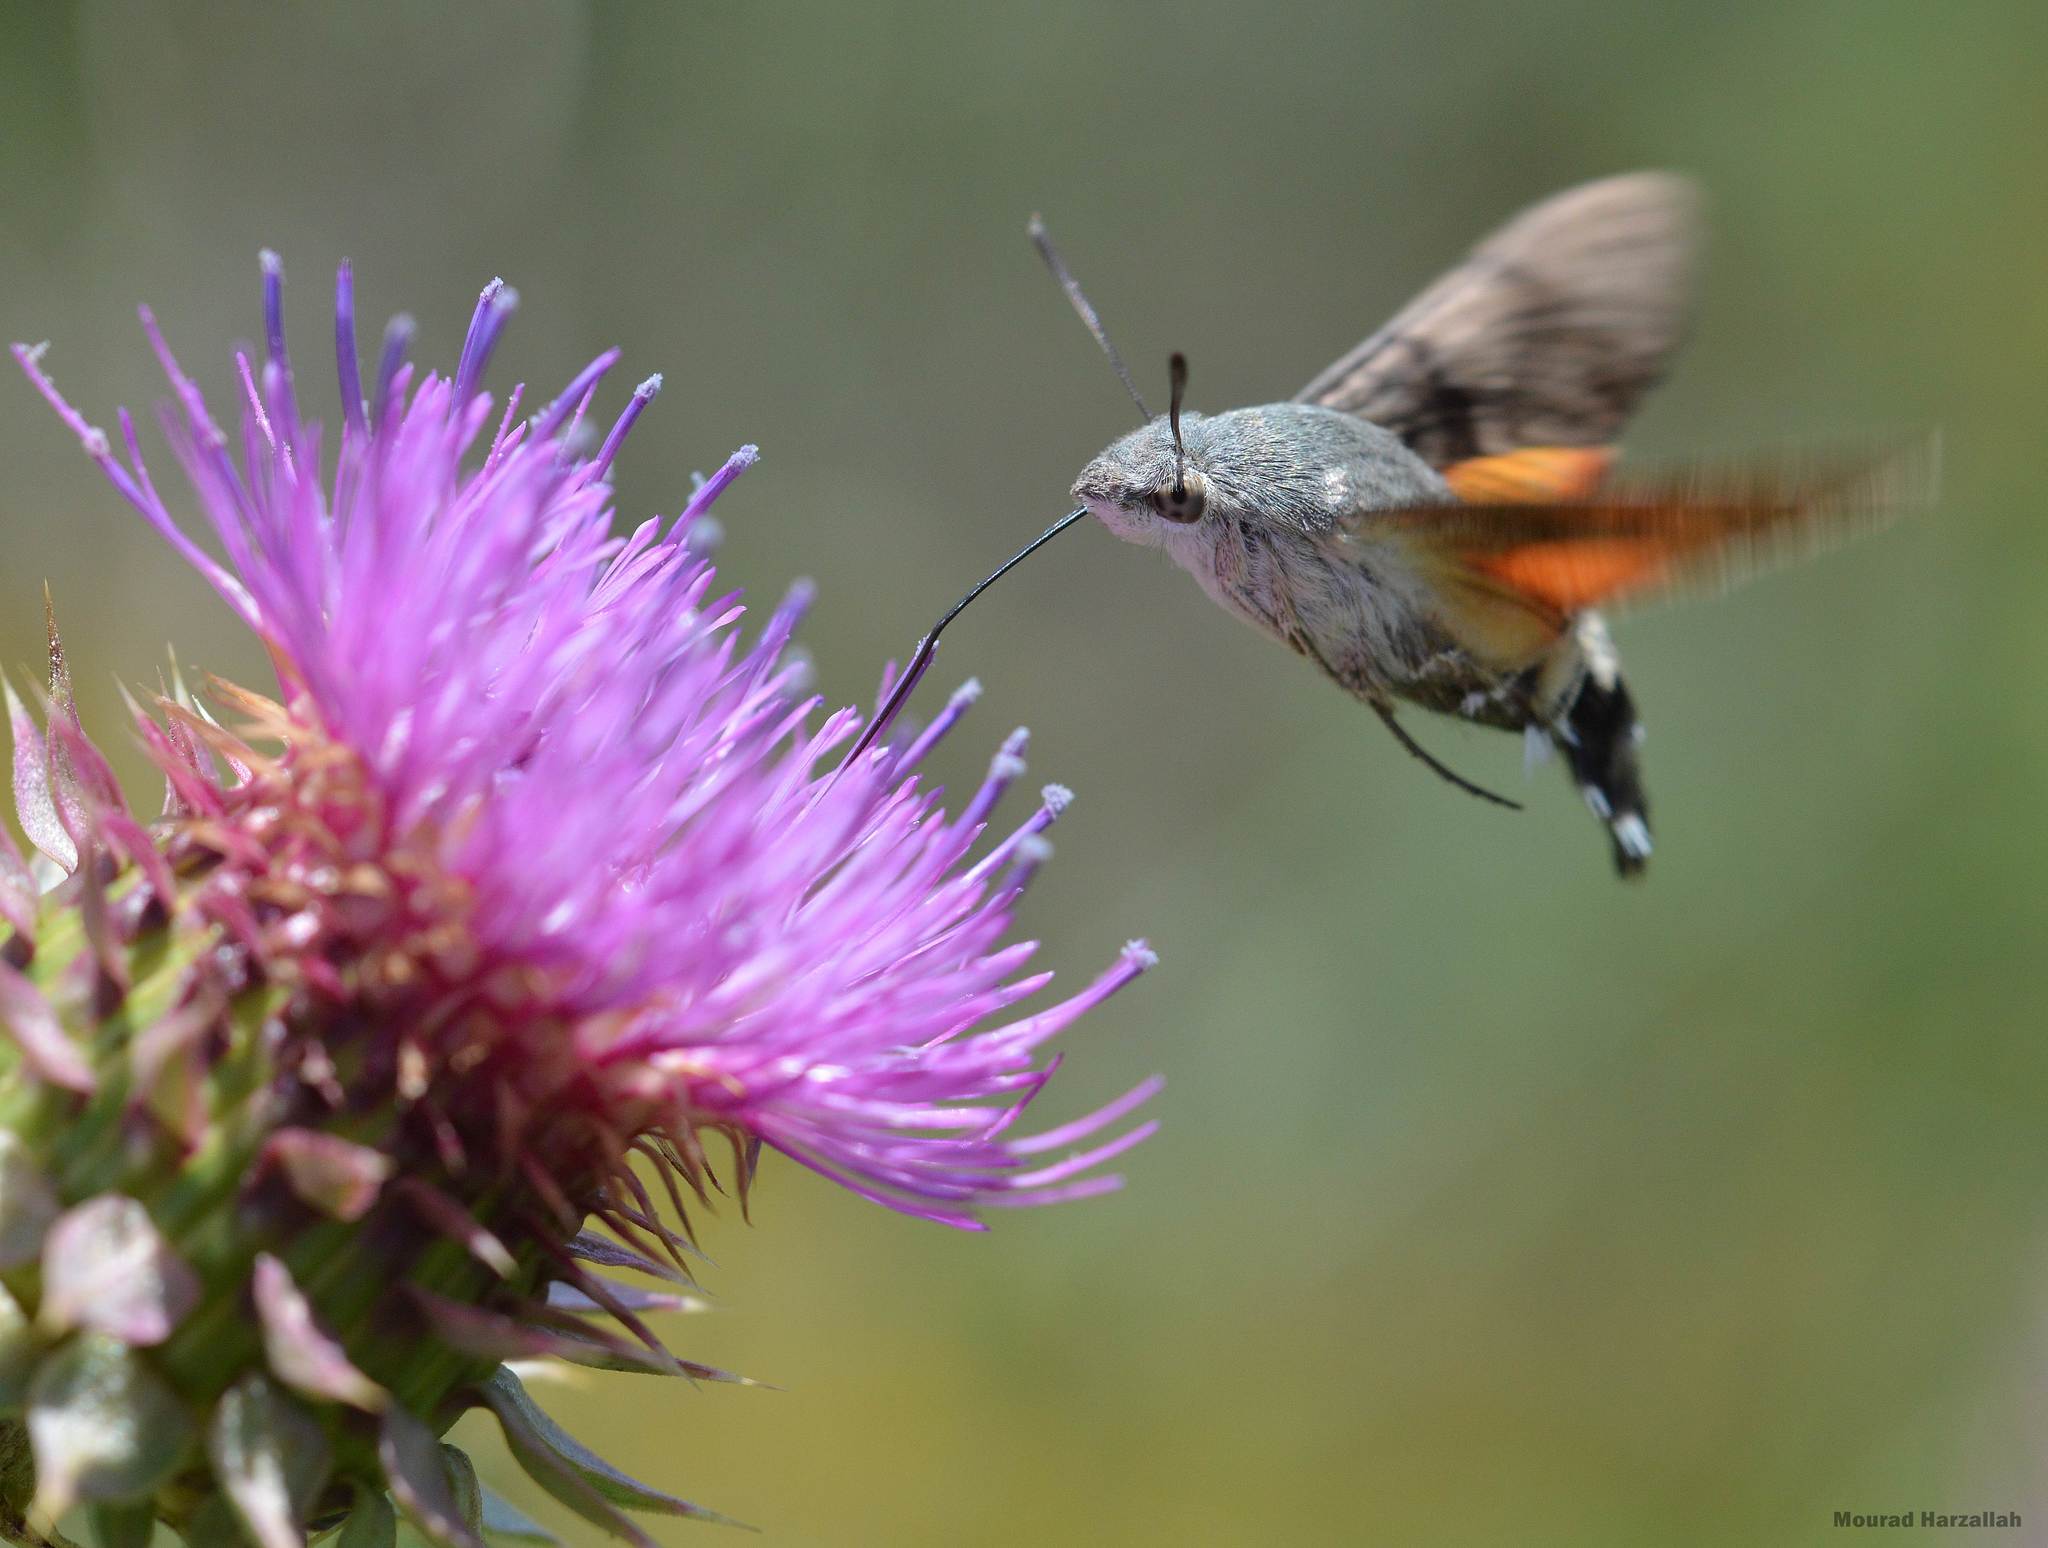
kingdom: Animalia
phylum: Arthropoda
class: Insecta
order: Lepidoptera
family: Sphingidae
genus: Macroglossum
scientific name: Macroglossum stellatarum
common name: Humming-bird hawk-moth
